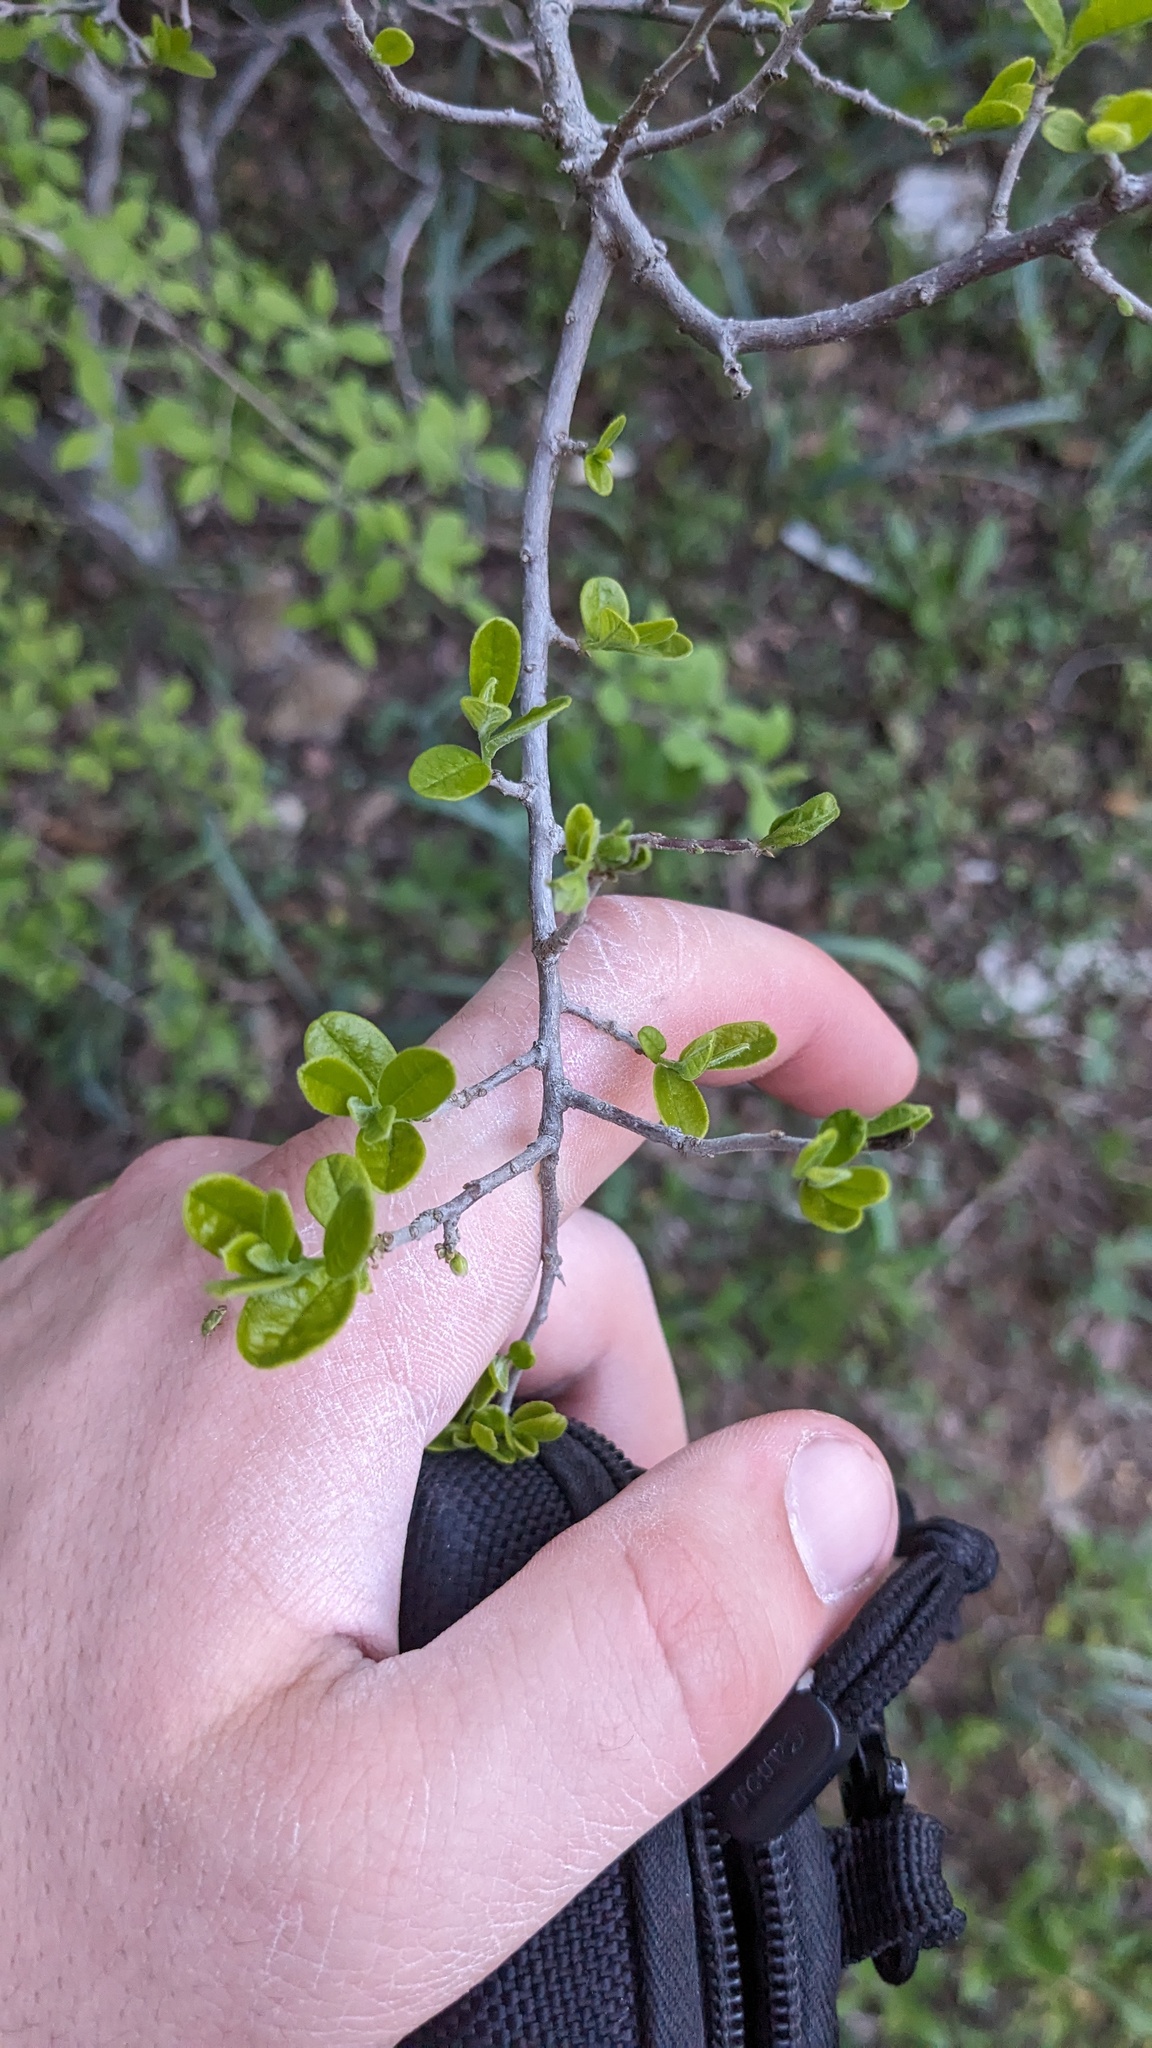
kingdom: Plantae
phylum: Tracheophyta
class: Magnoliopsida
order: Ericales
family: Ebenaceae
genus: Diospyros
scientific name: Diospyros texana
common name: Texas persimmon
